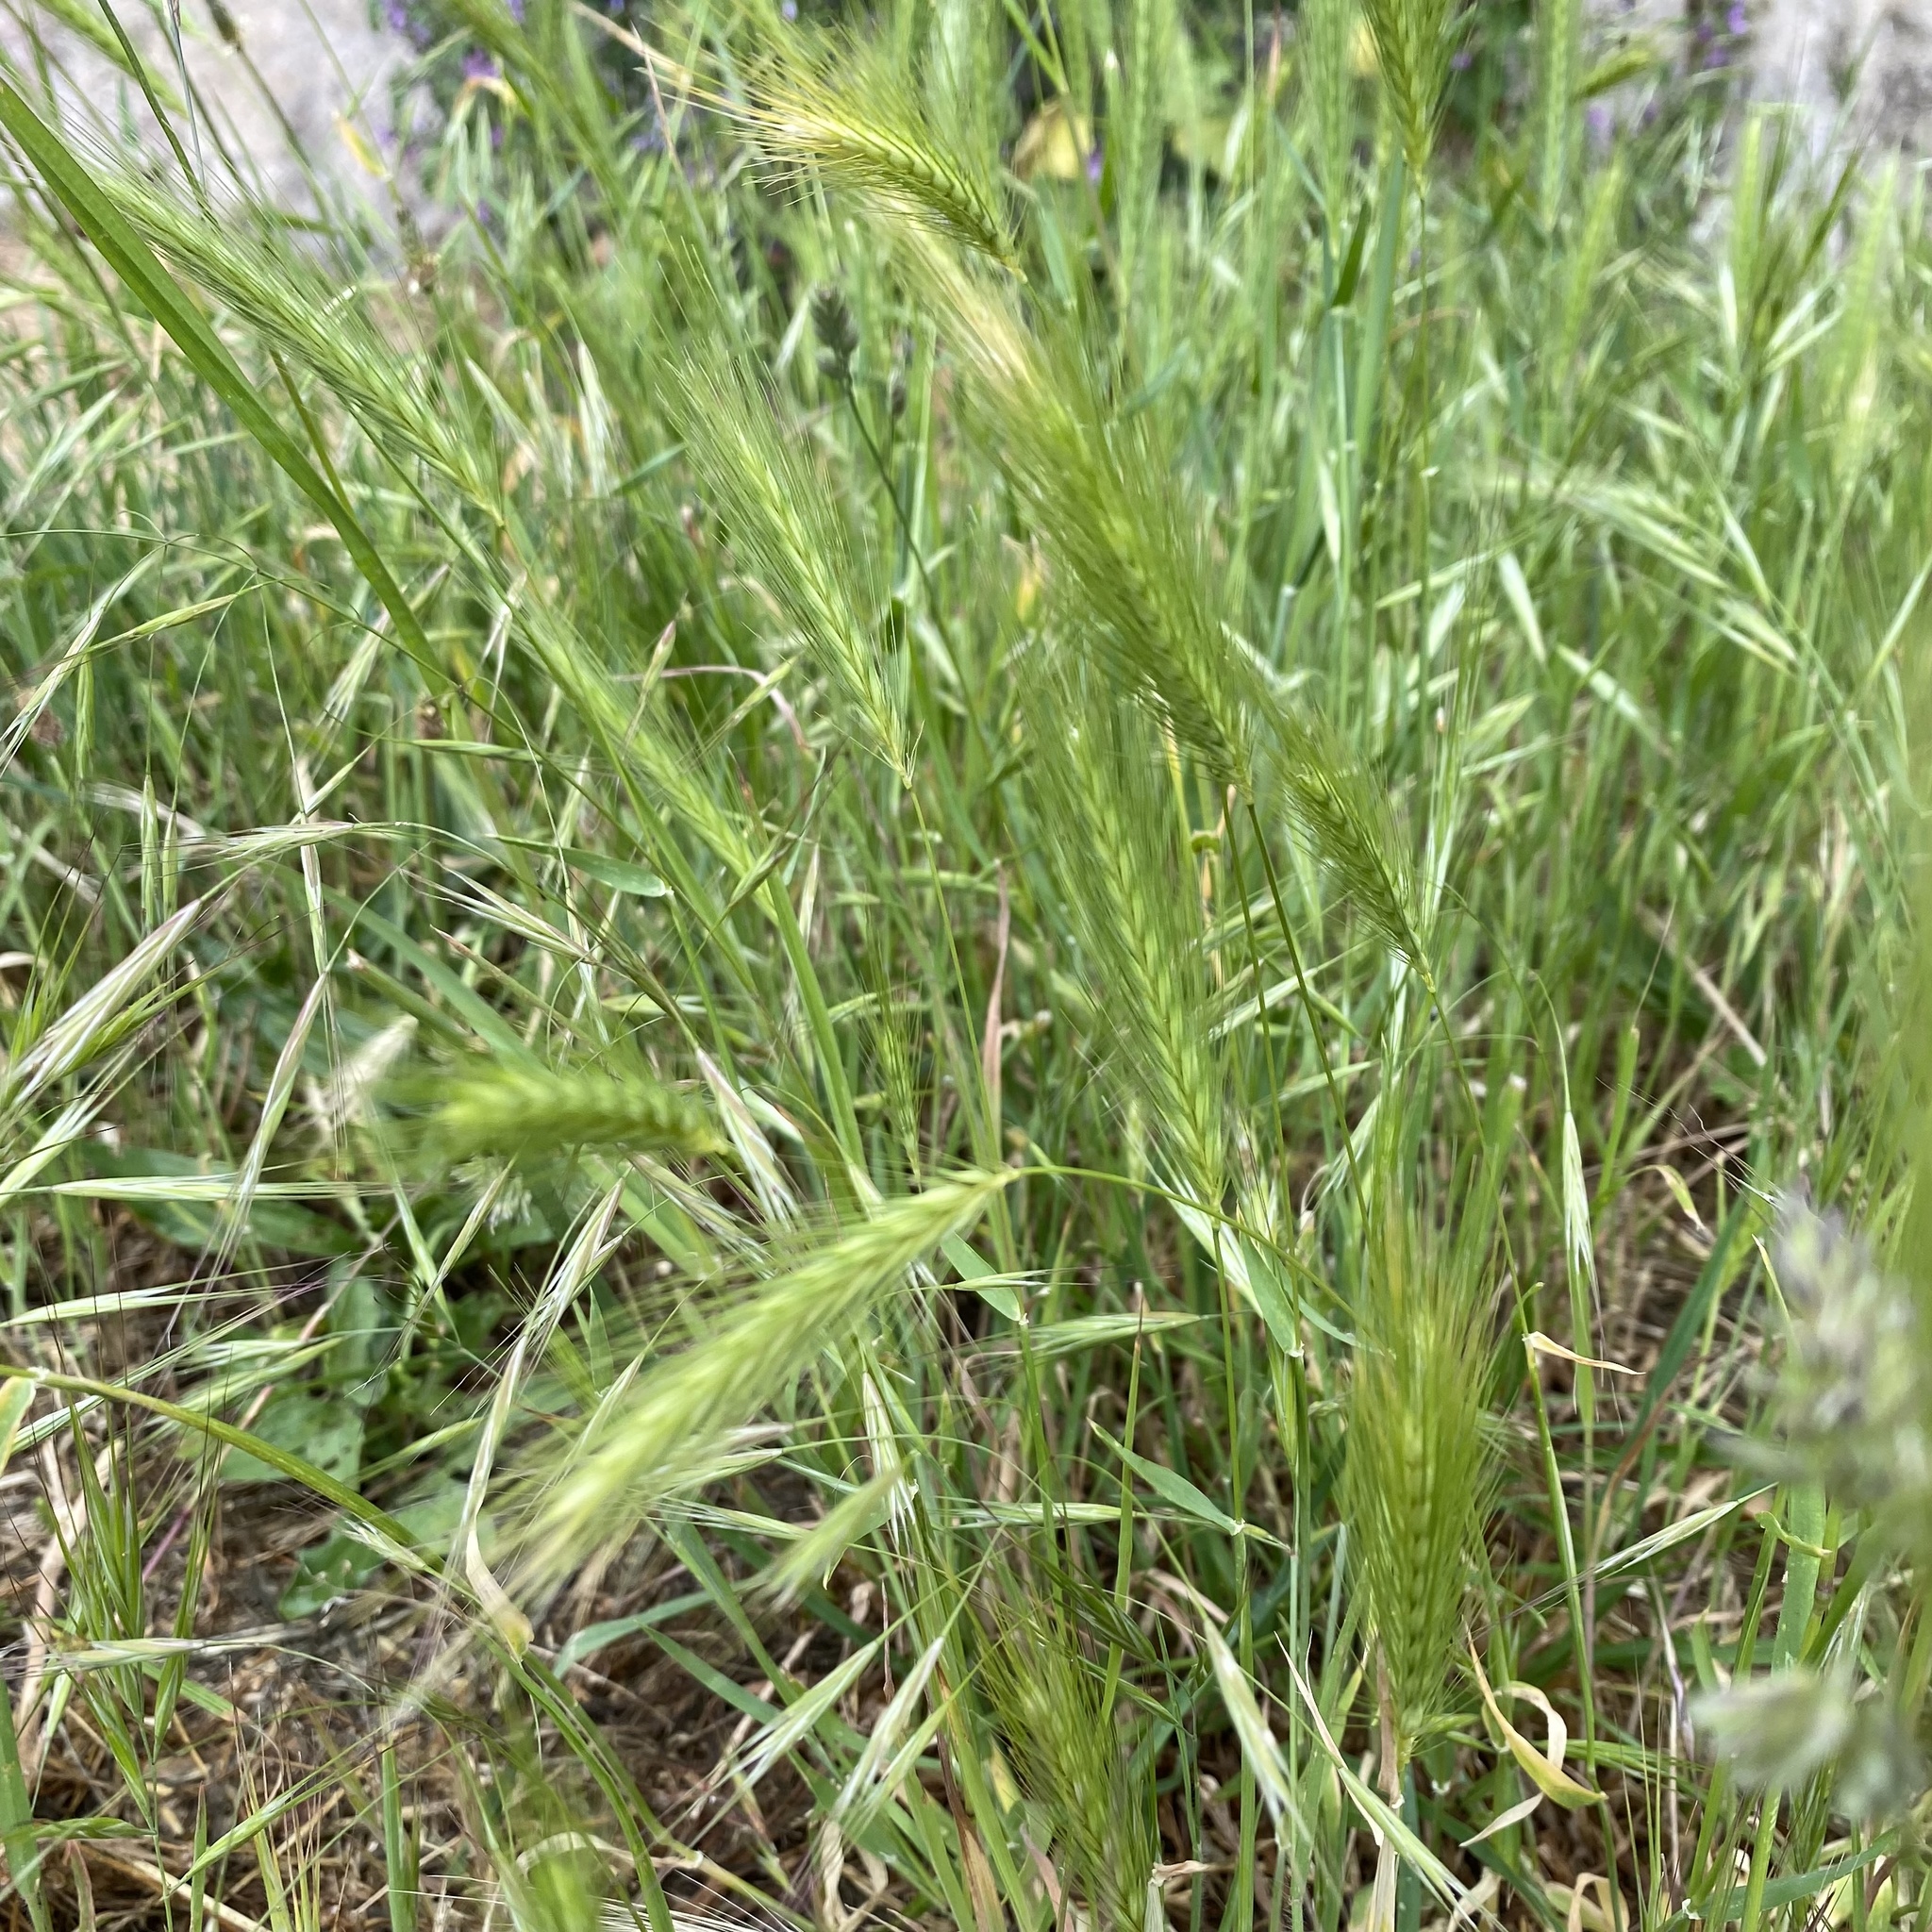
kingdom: Plantae
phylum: Tracheophyta
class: Liliopsida
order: Poales
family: Poaceae
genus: Hordeum
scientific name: Hordeum murinum
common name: Wall barley
